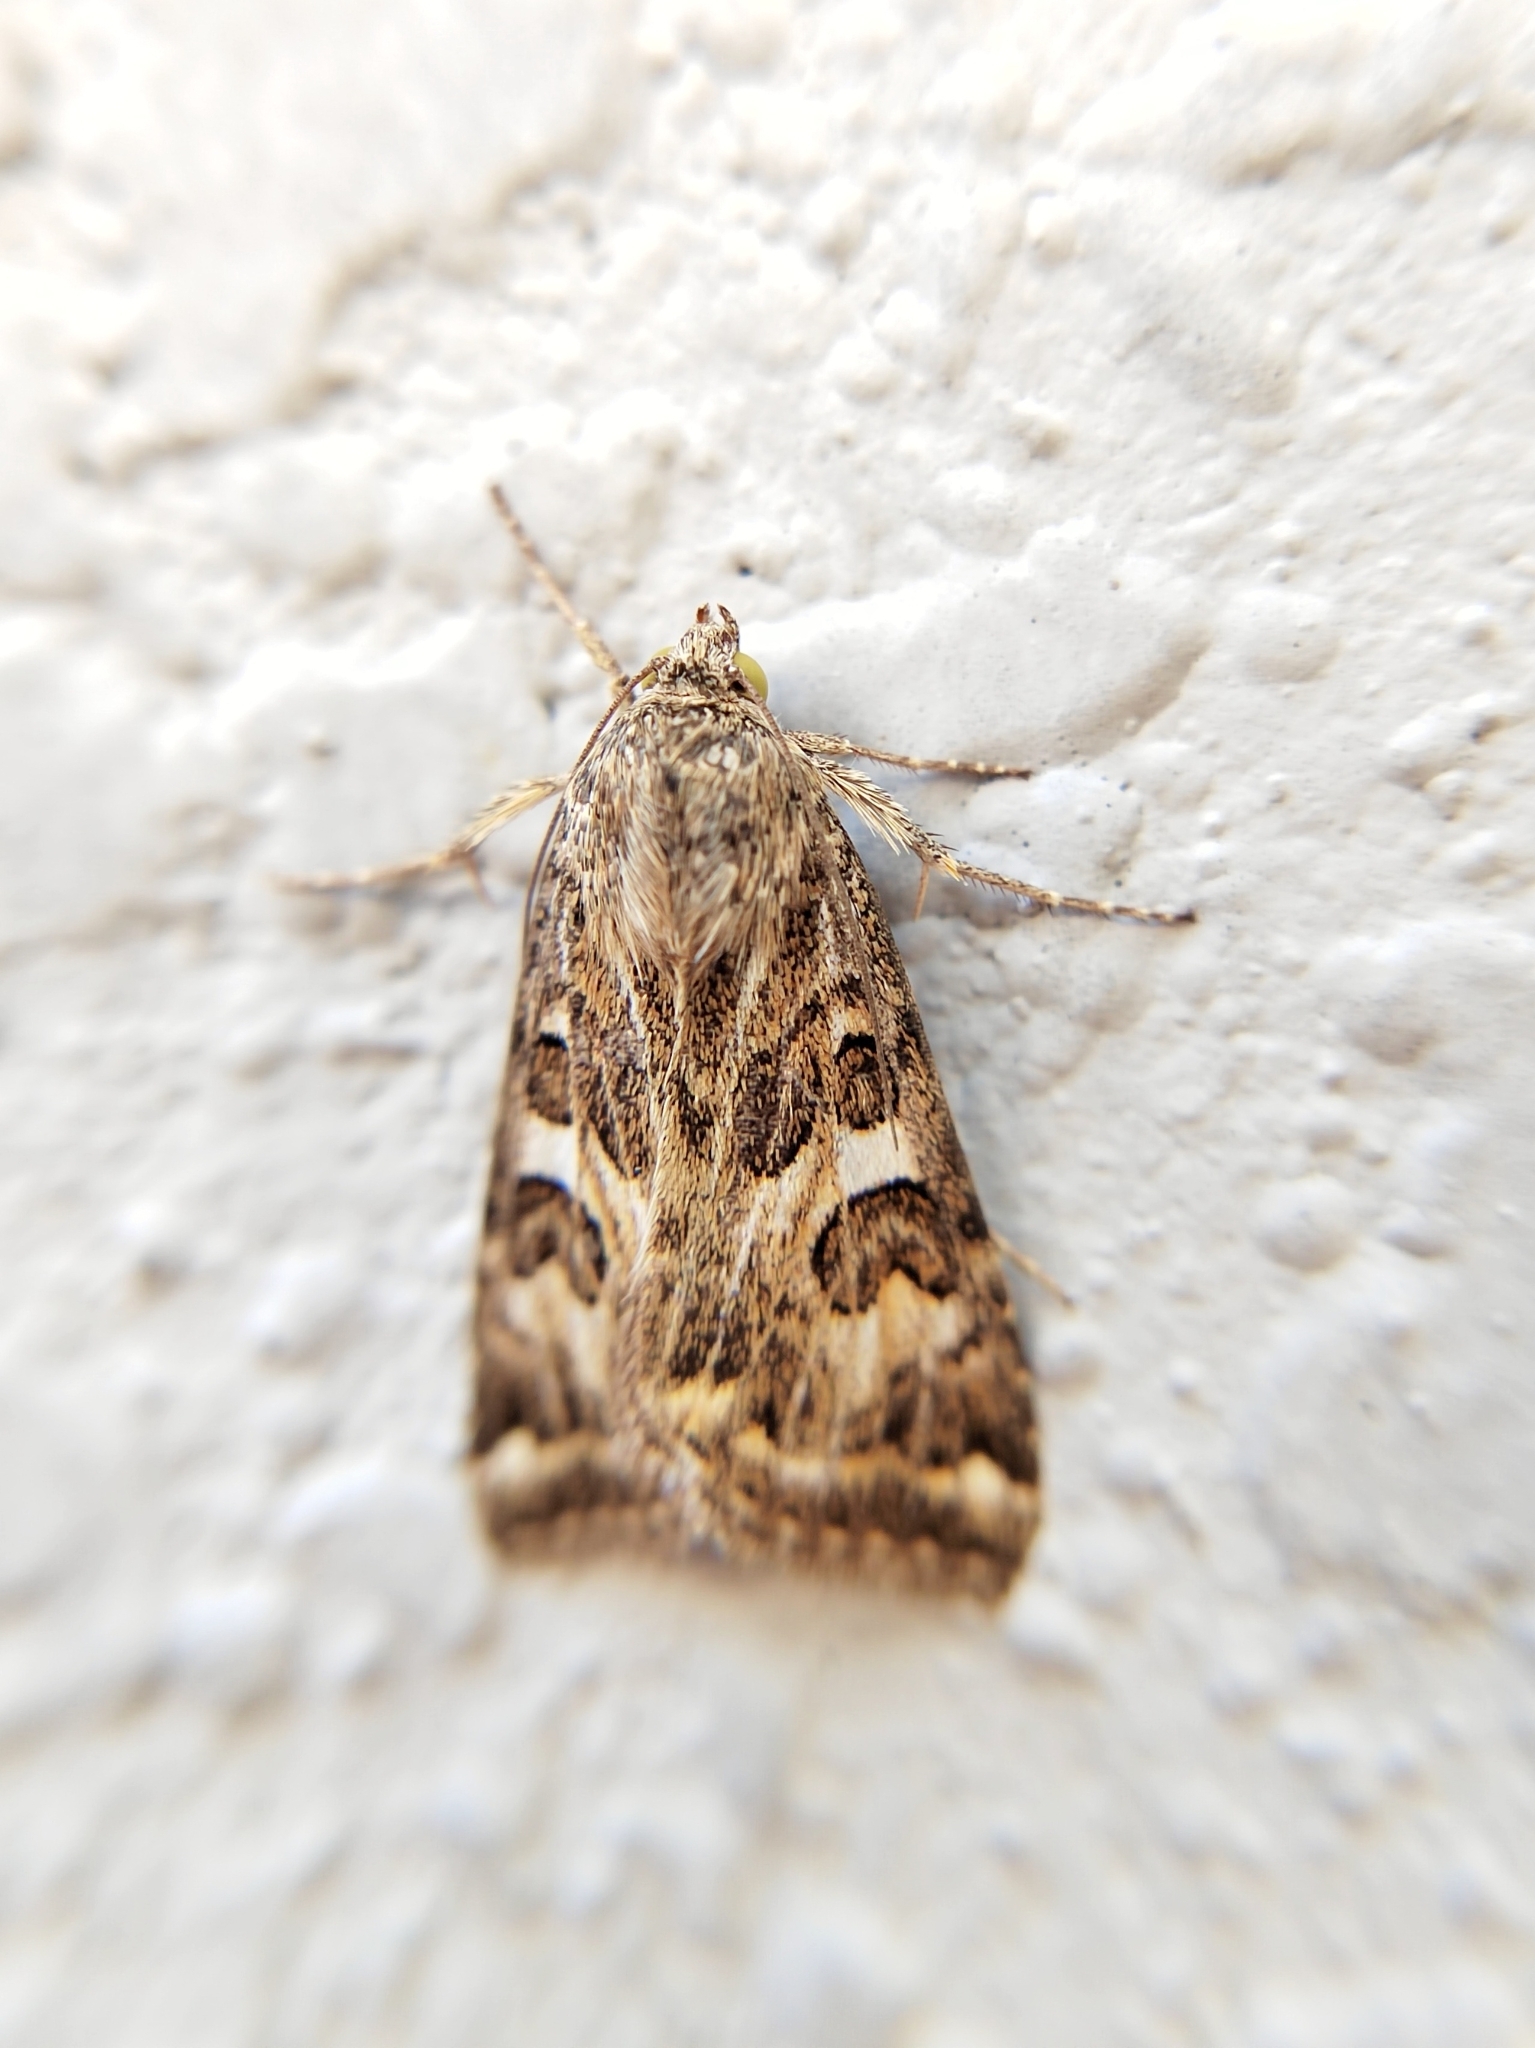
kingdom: Animalia
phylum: Arthropoda
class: Insecta
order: Lepidoptera
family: Noctuidae
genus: Protoschinia
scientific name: Protoschinia scutosa
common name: Spotted clover
